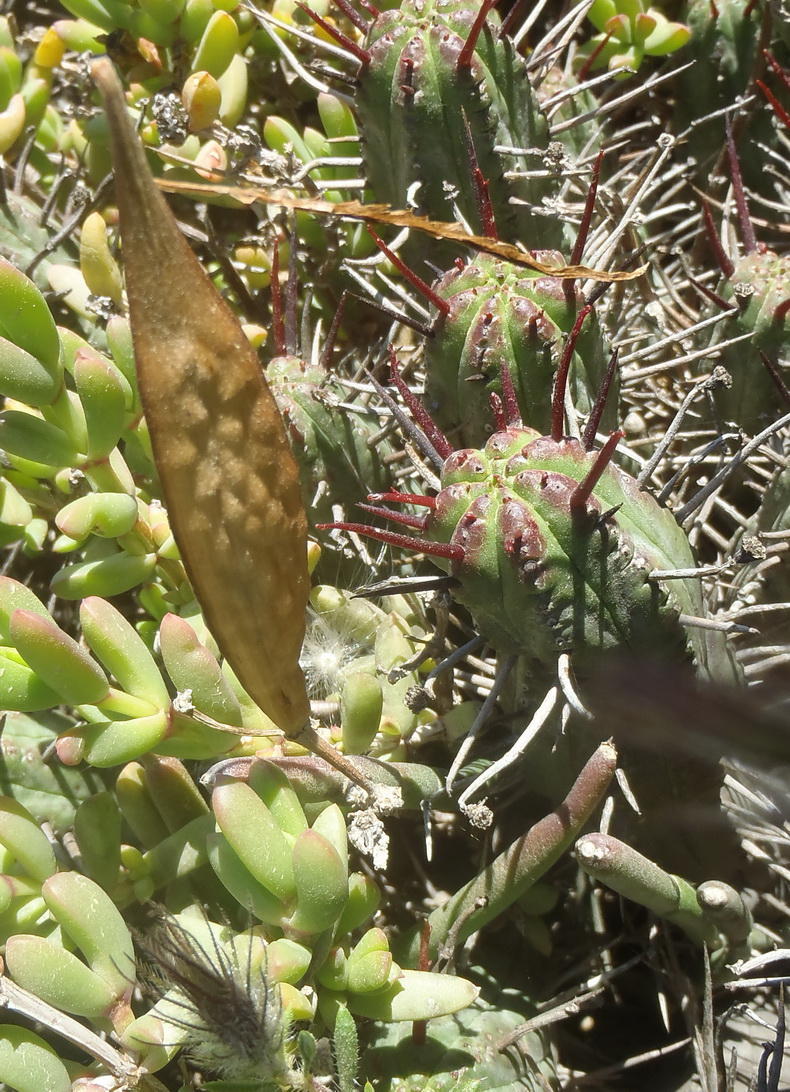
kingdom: Plantae
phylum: Tracheophyta
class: Magnoliopsida
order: Gentianales
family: Apocynaceae
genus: Cynanchum
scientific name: Cynanchum viminale
